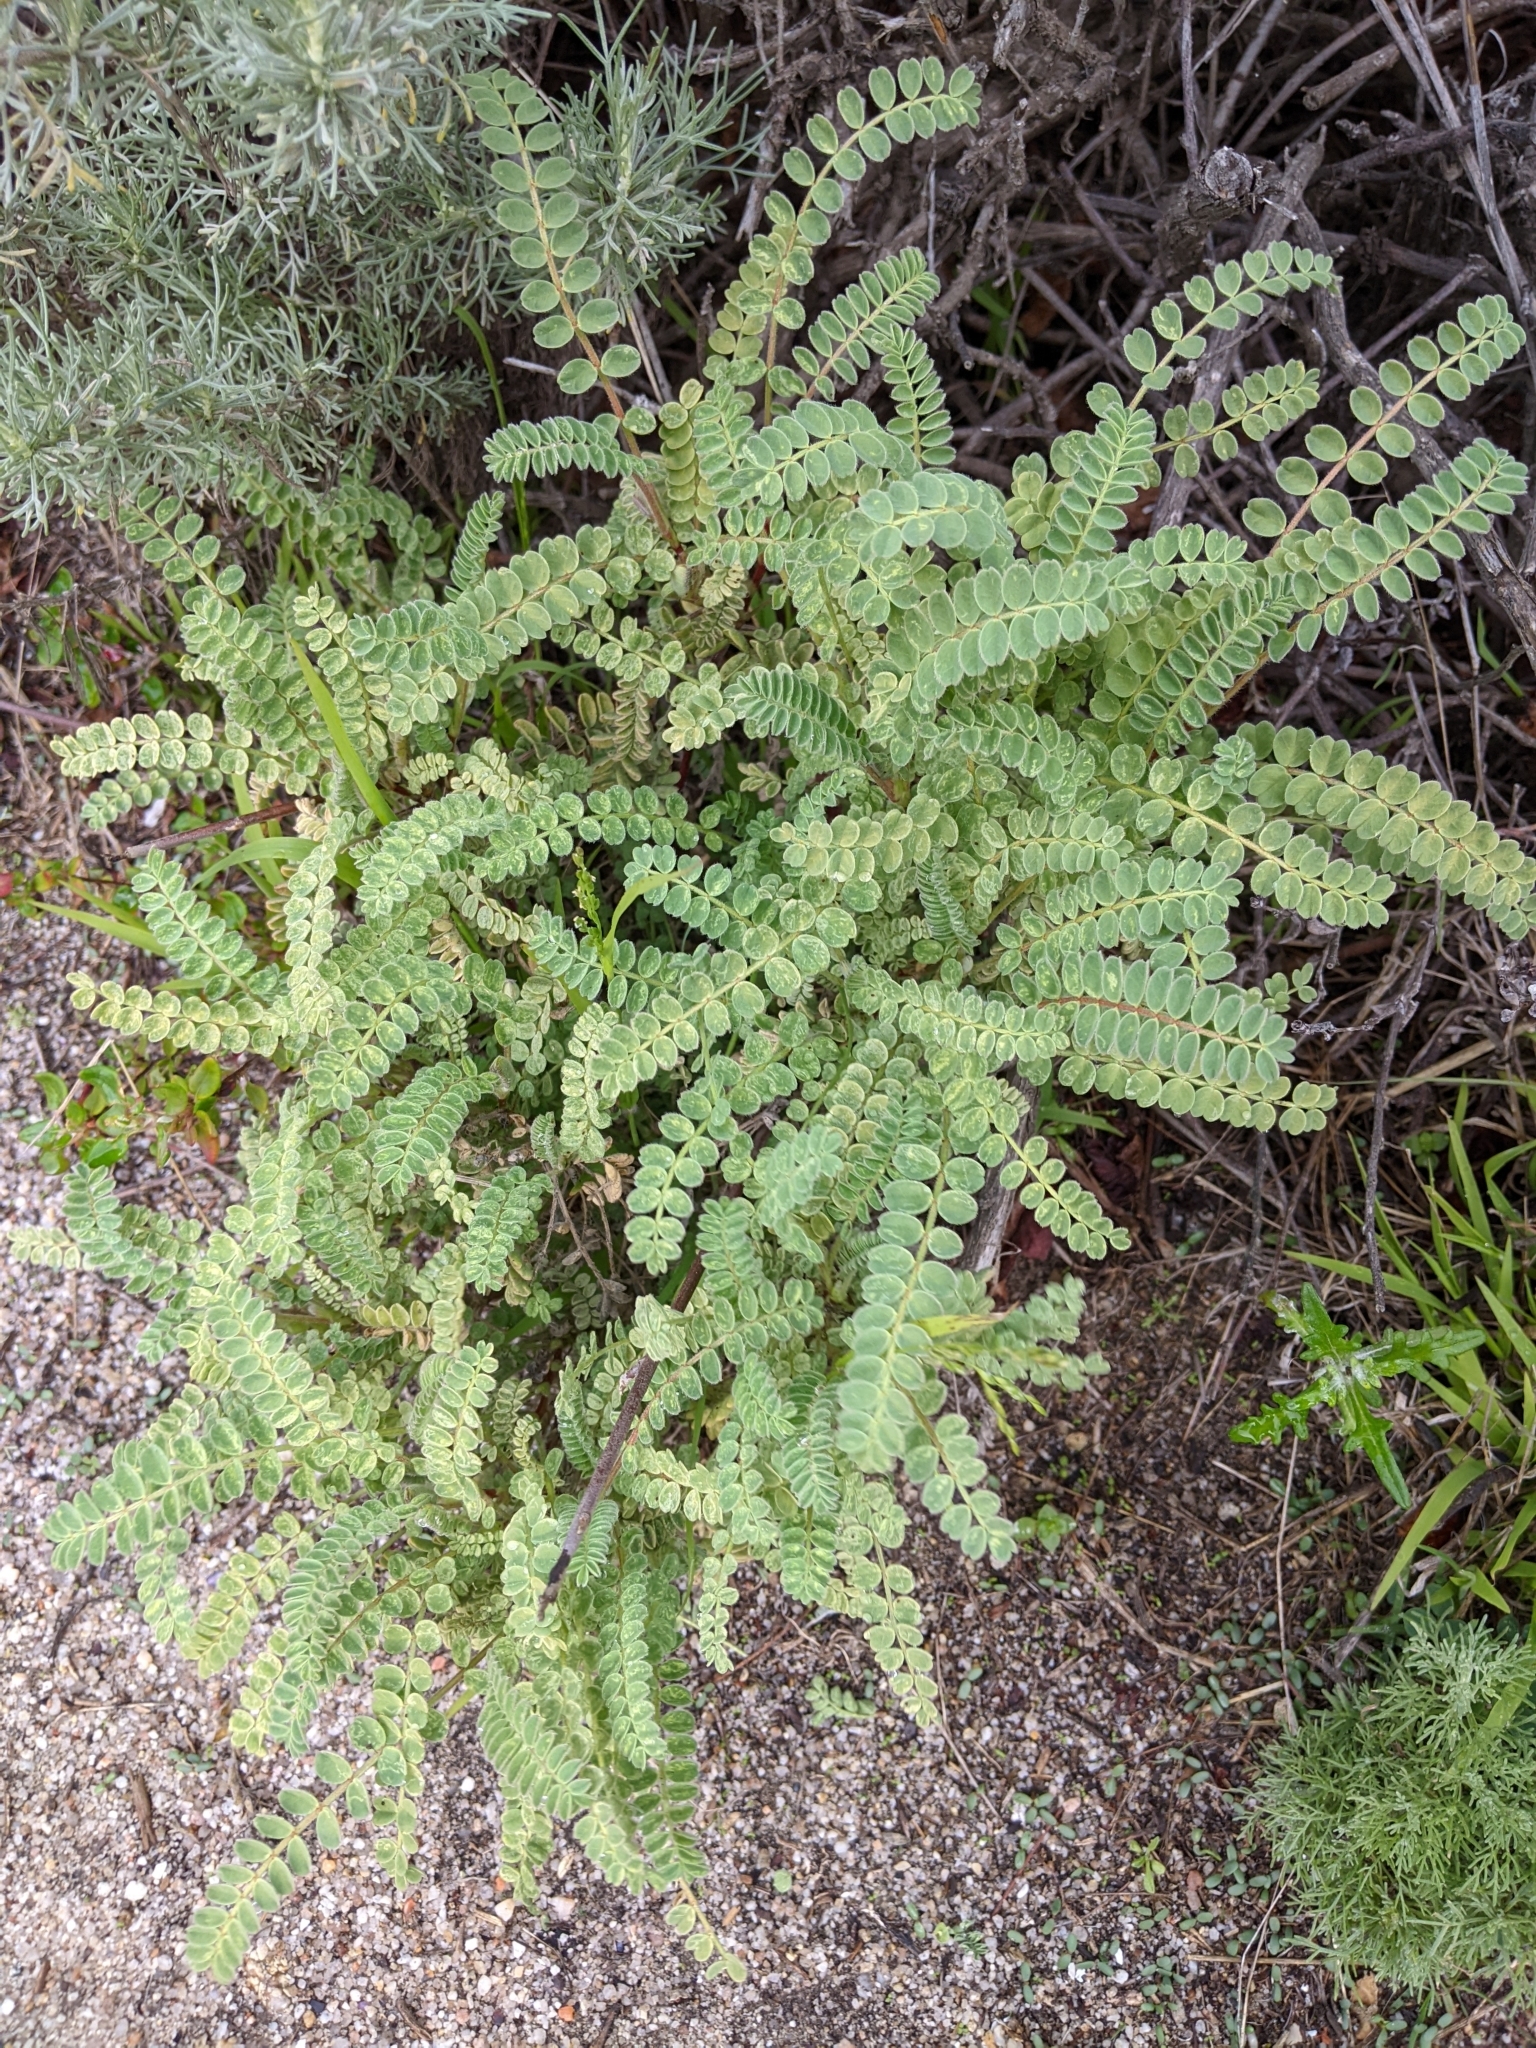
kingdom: Plantae
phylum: Tracheophyta
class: Magnoliopsida
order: Fabales
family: Fabaceae
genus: Astragalus
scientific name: Astragalus nuttallii
